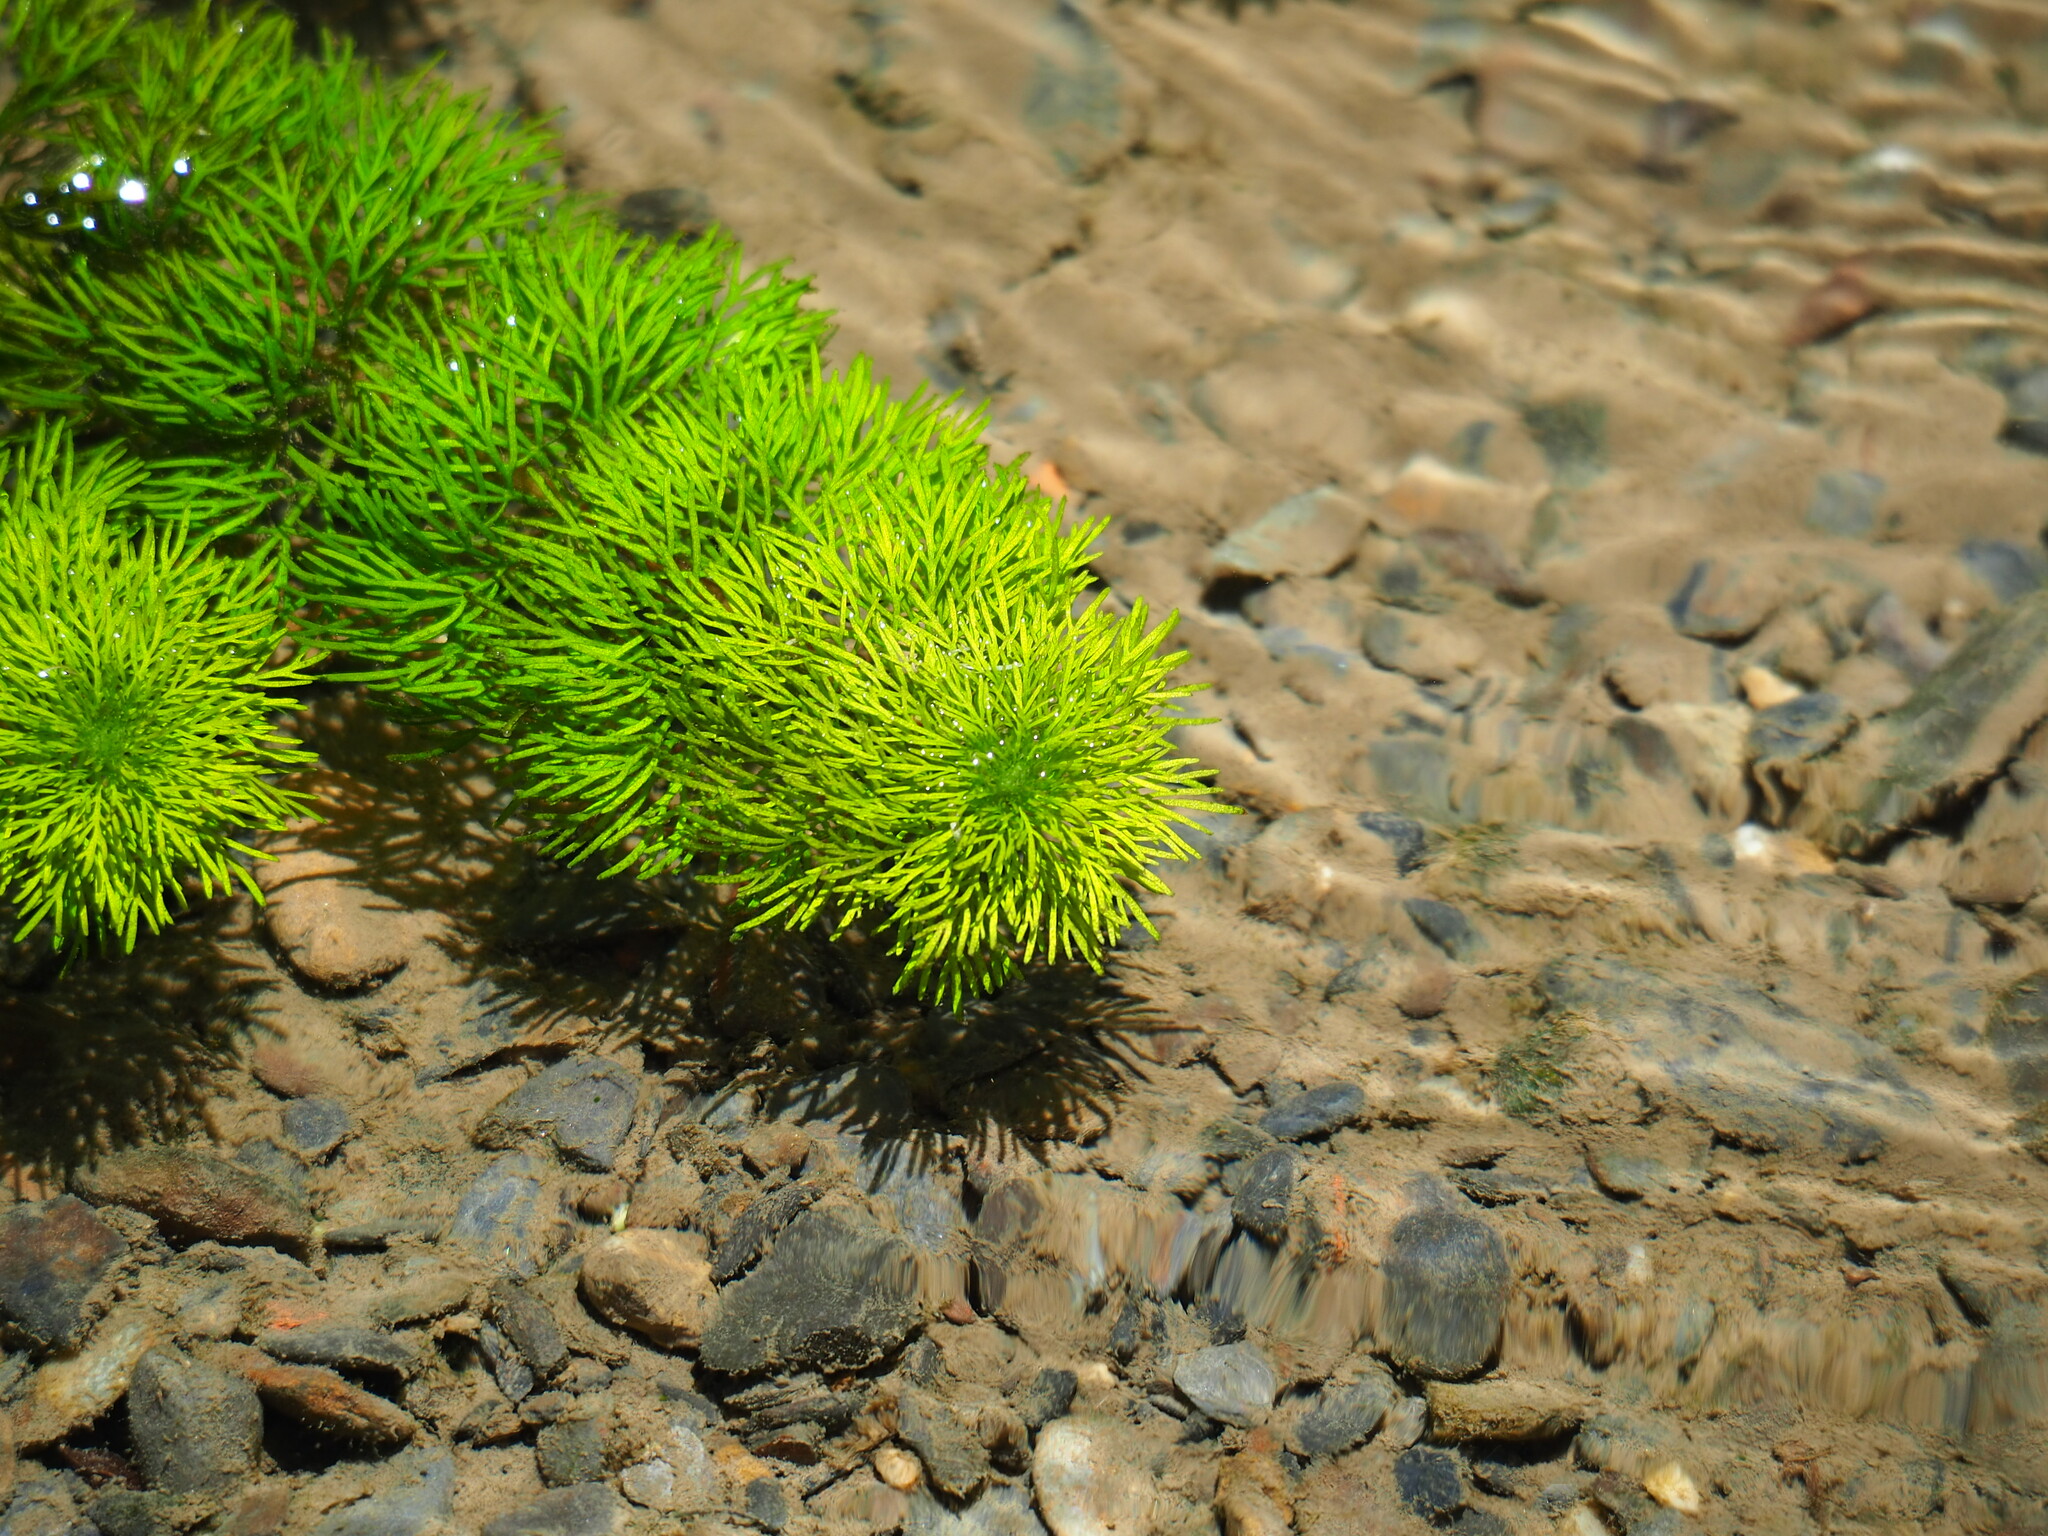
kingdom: Plantae
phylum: Tracheophyta
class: Magnoliopsida
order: Lamiales
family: Plantaginaceae
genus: Limnophila
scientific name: Limnophila indica
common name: Indian marshweed
